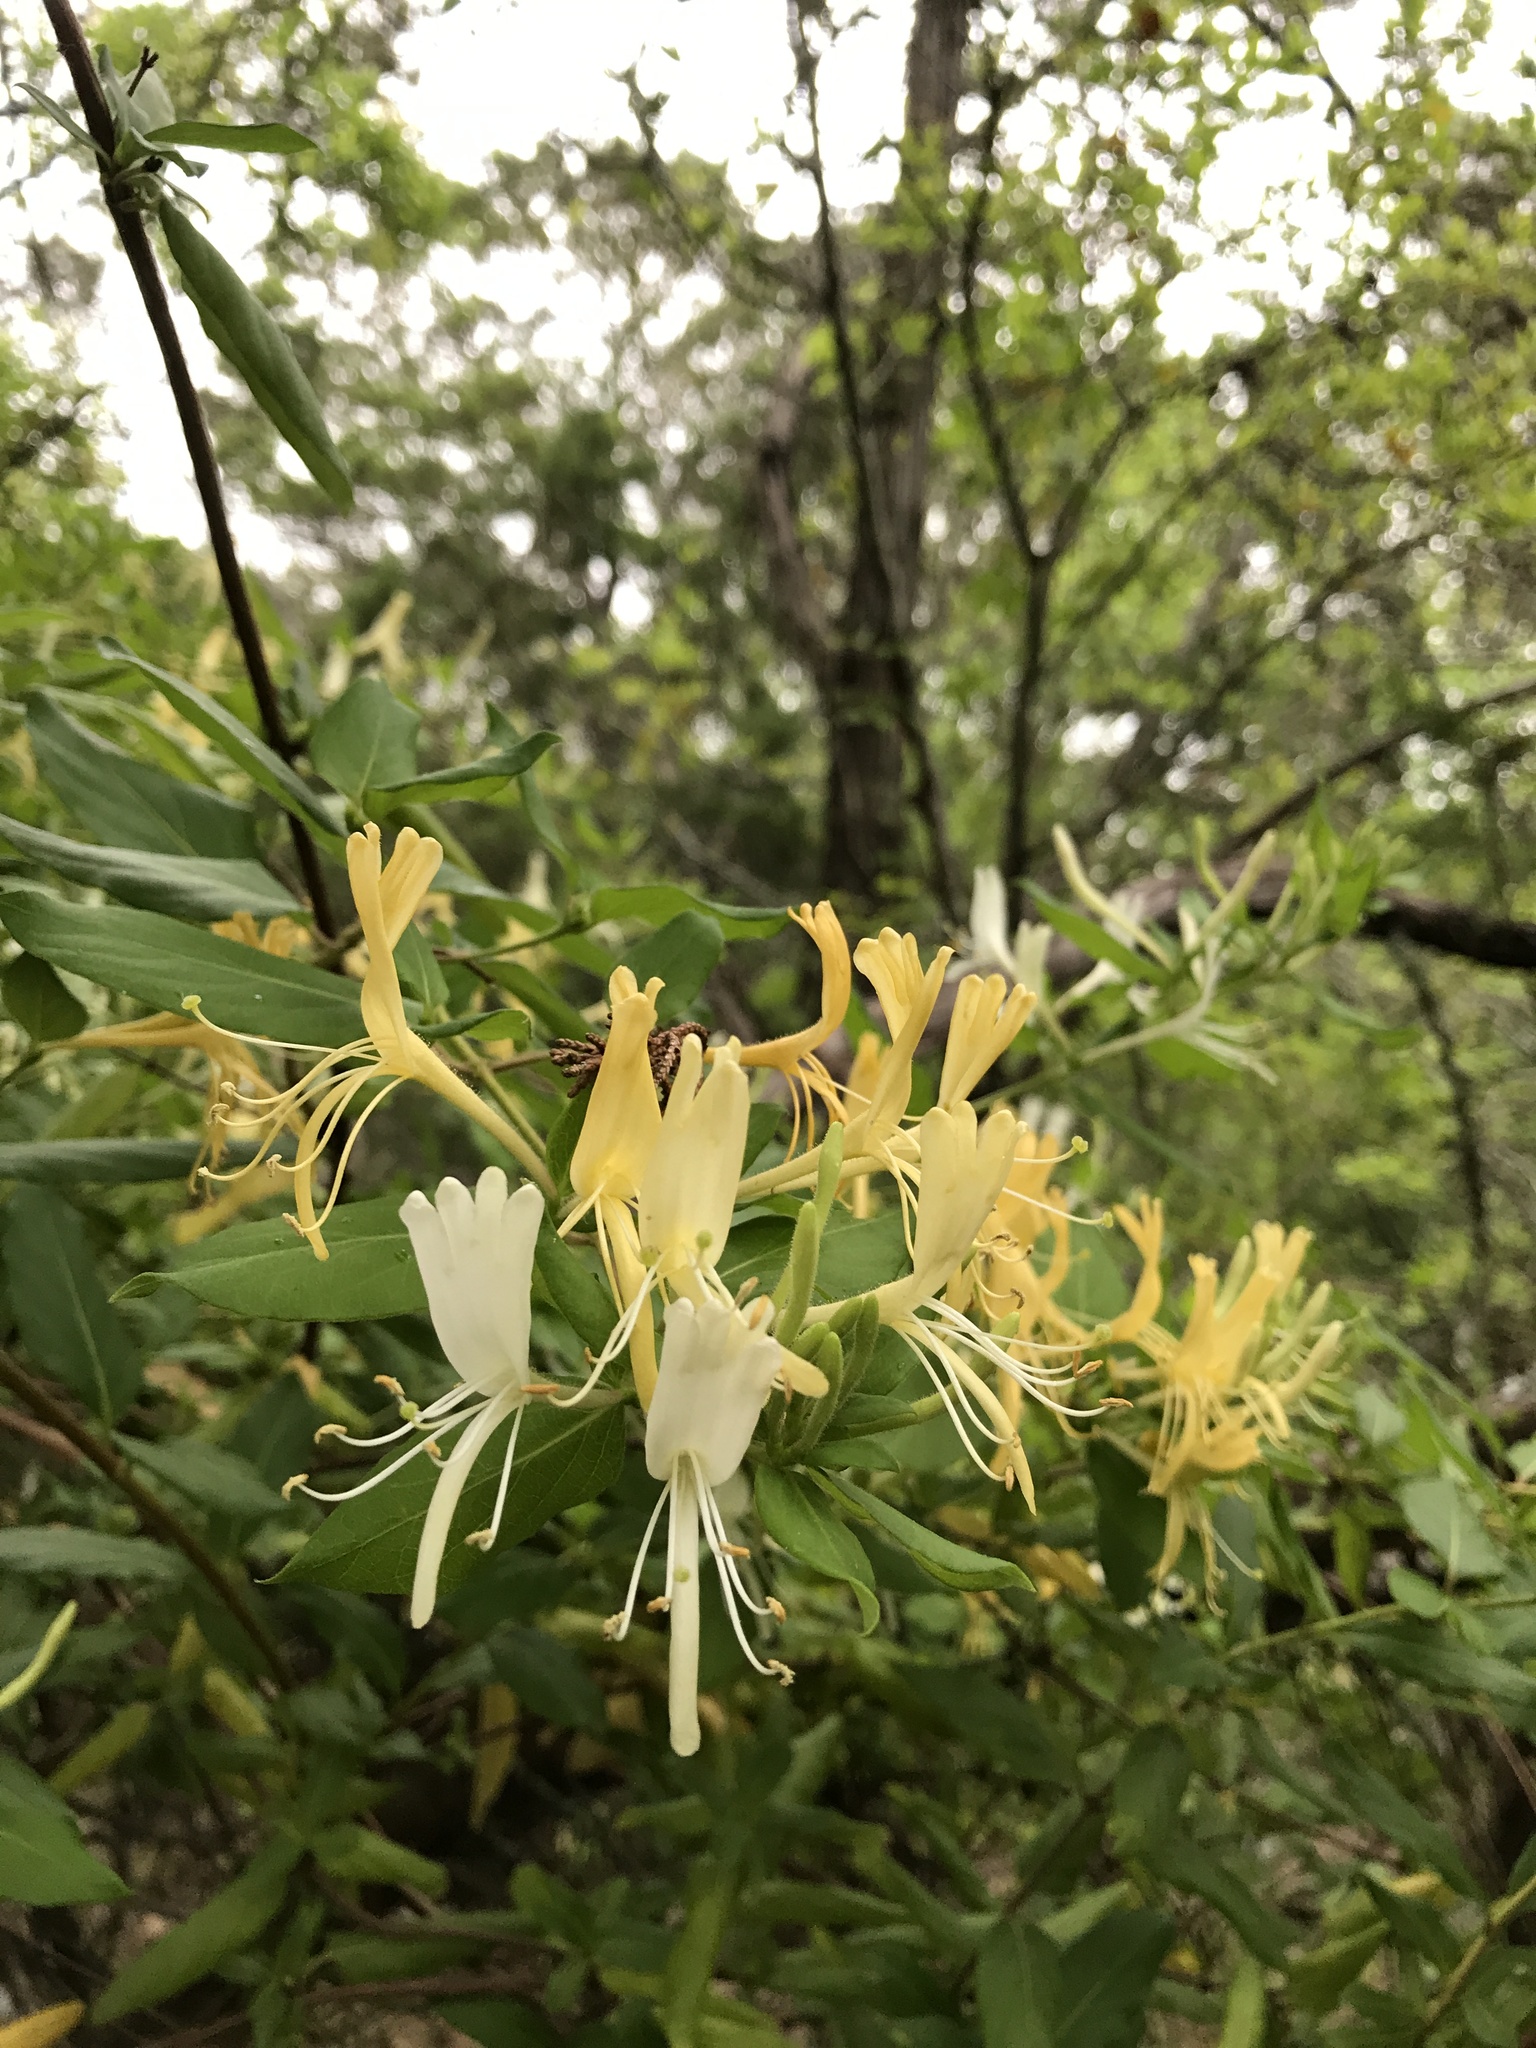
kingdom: Plantae
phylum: Tracheophyta
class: Magnoliopsida
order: Dipsacales
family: Caprifoliaceae
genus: Lonicera
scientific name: Lonicera japonica
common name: Japanese honeysuckle
